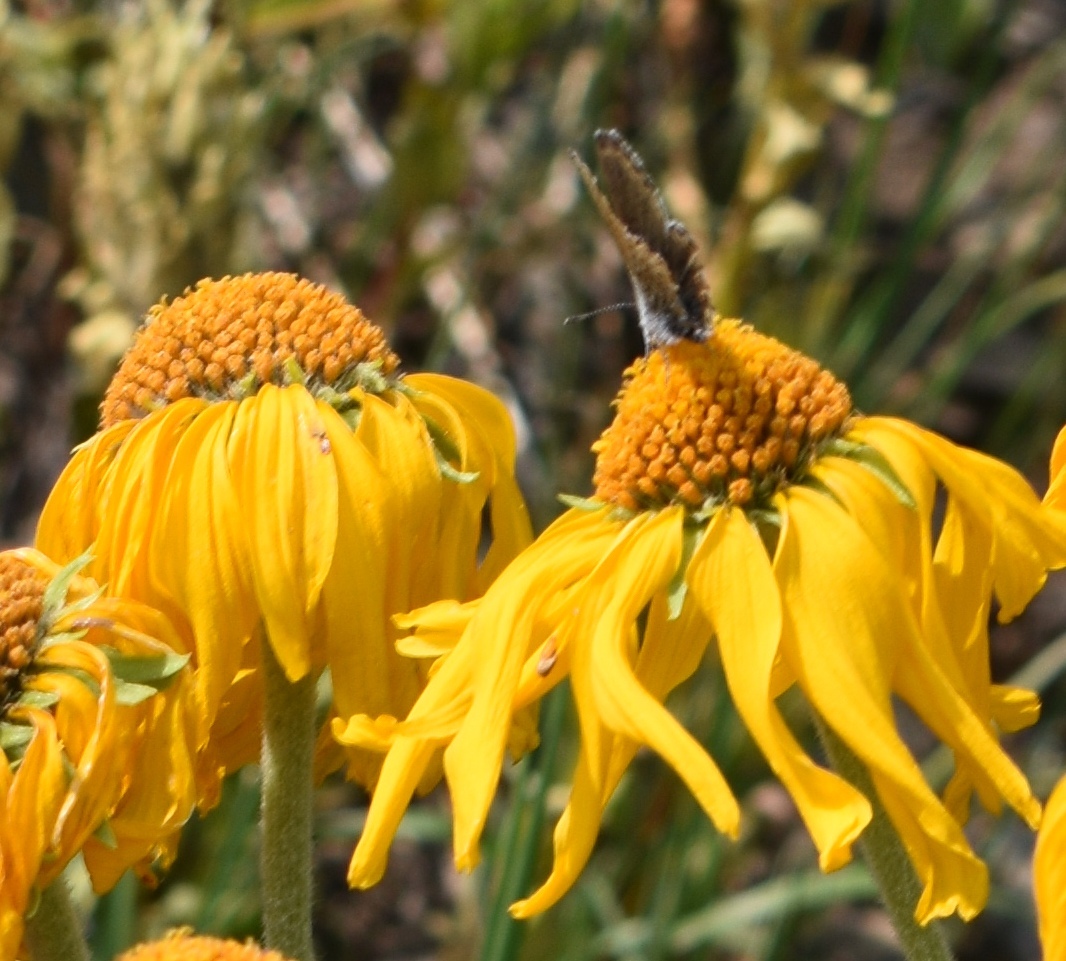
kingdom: Animalia
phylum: Arthropoda
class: Insecta
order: Lepidoptera
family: Lycaenidae
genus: Lycaeides
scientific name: Lycaeides idas
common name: Northern blue
